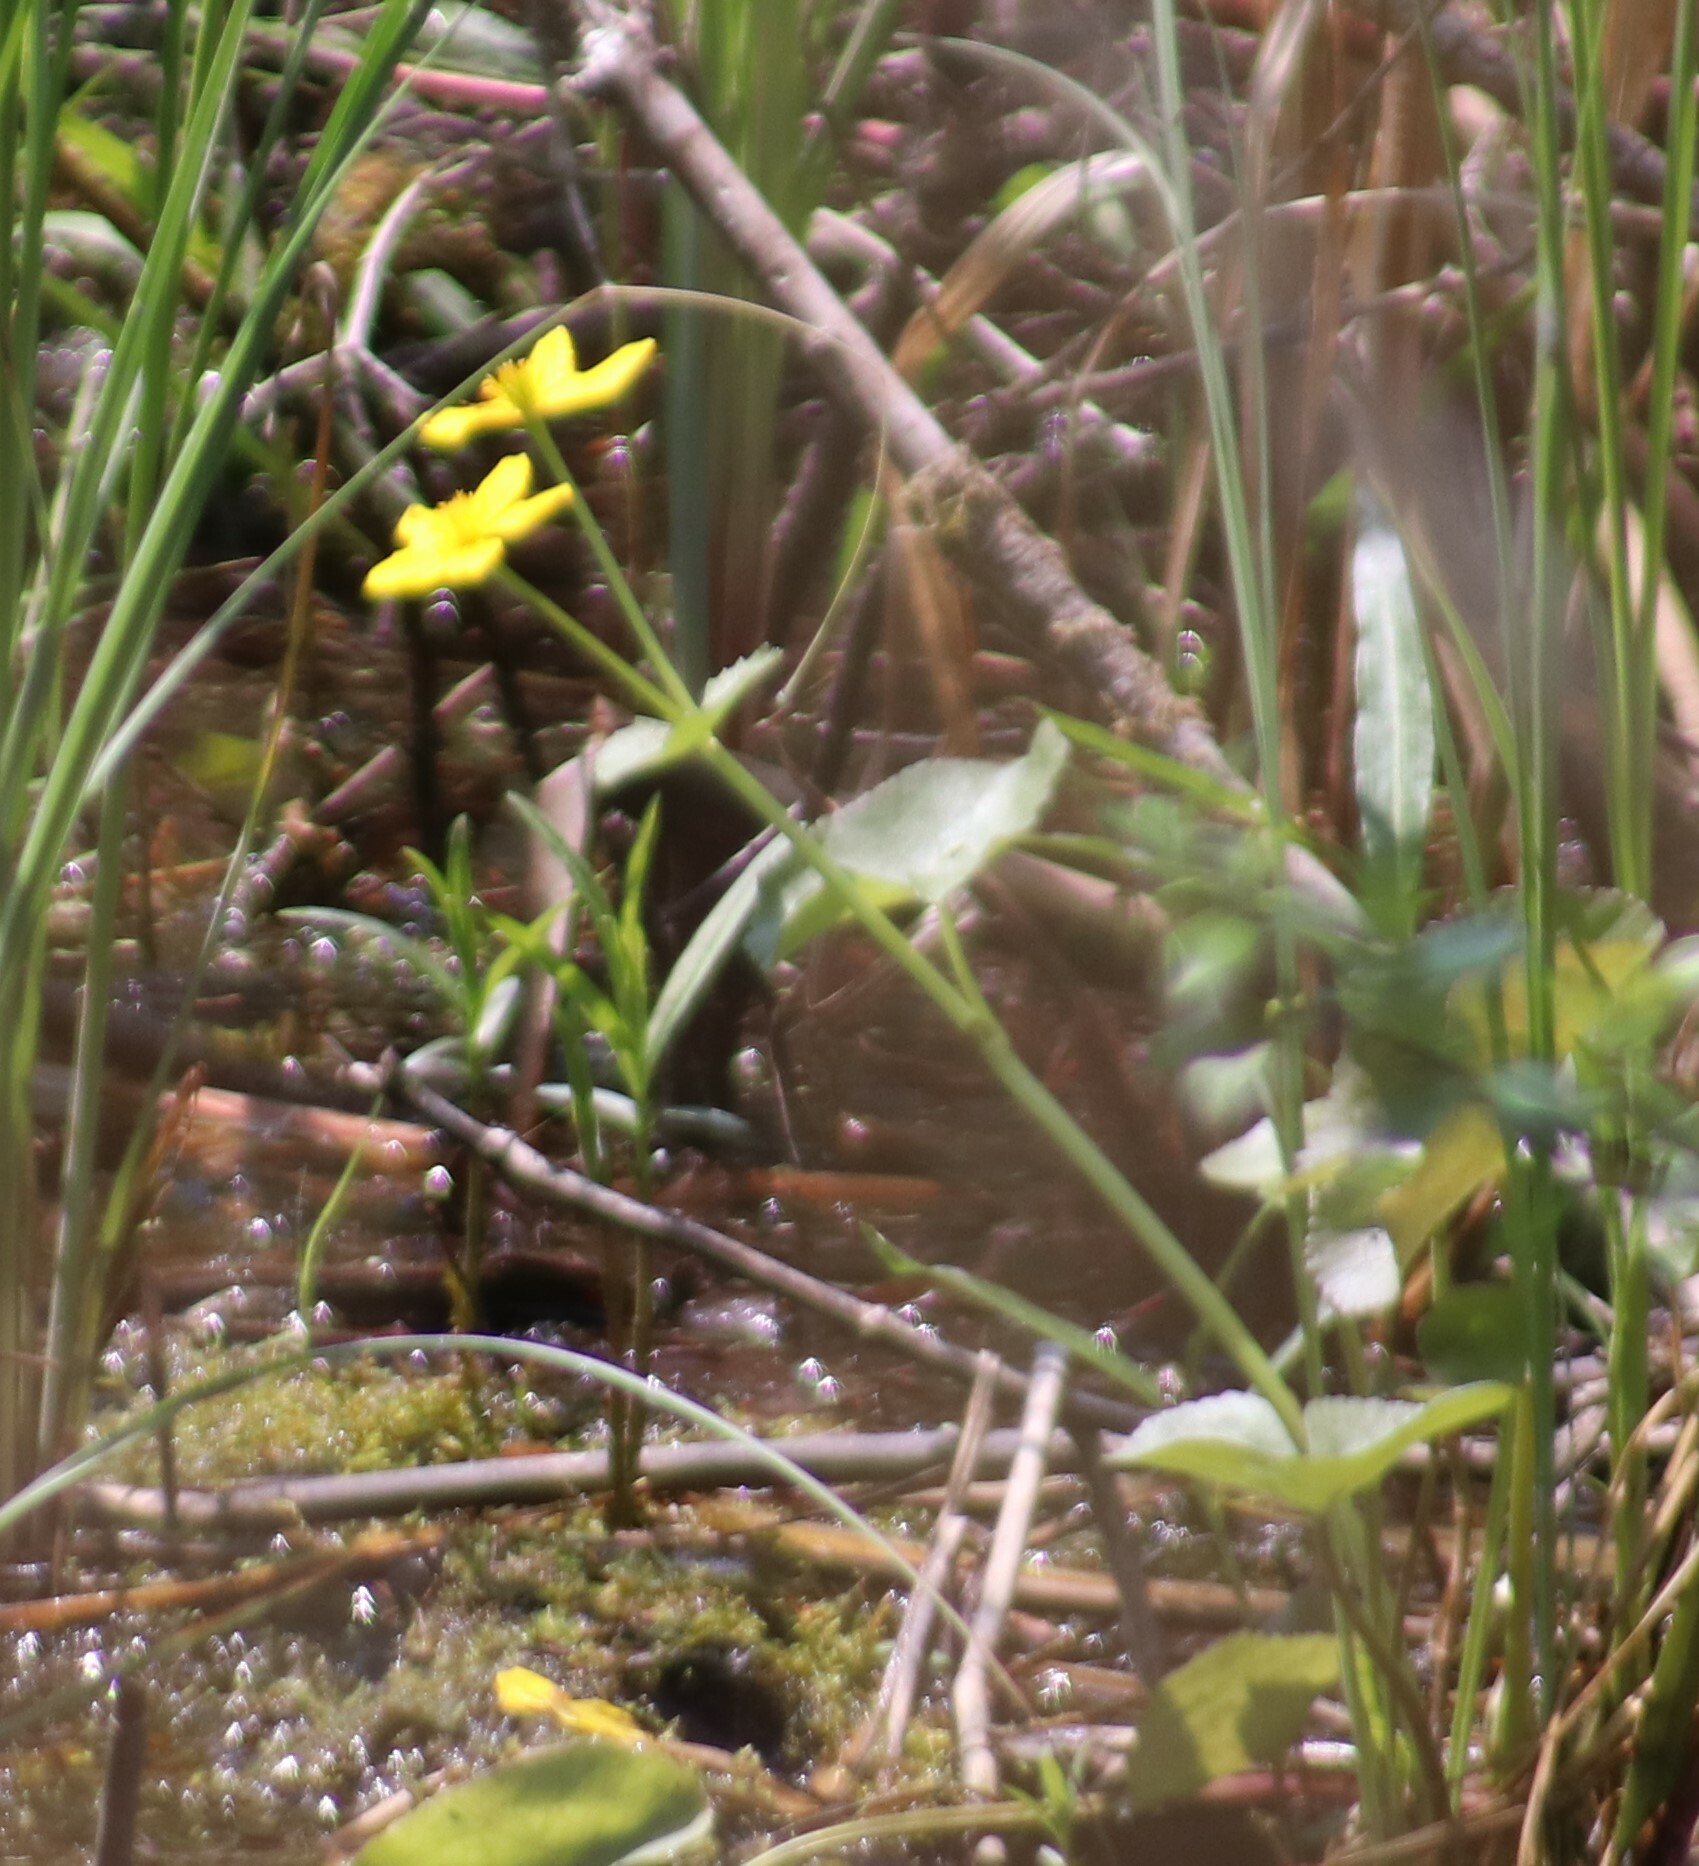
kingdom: Plantae
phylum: Tracheophyta
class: Magnoliopsida
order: Ranunculales
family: Ranunculaceae
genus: Caltha
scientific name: Caltha palustris
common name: Marsh marigold
